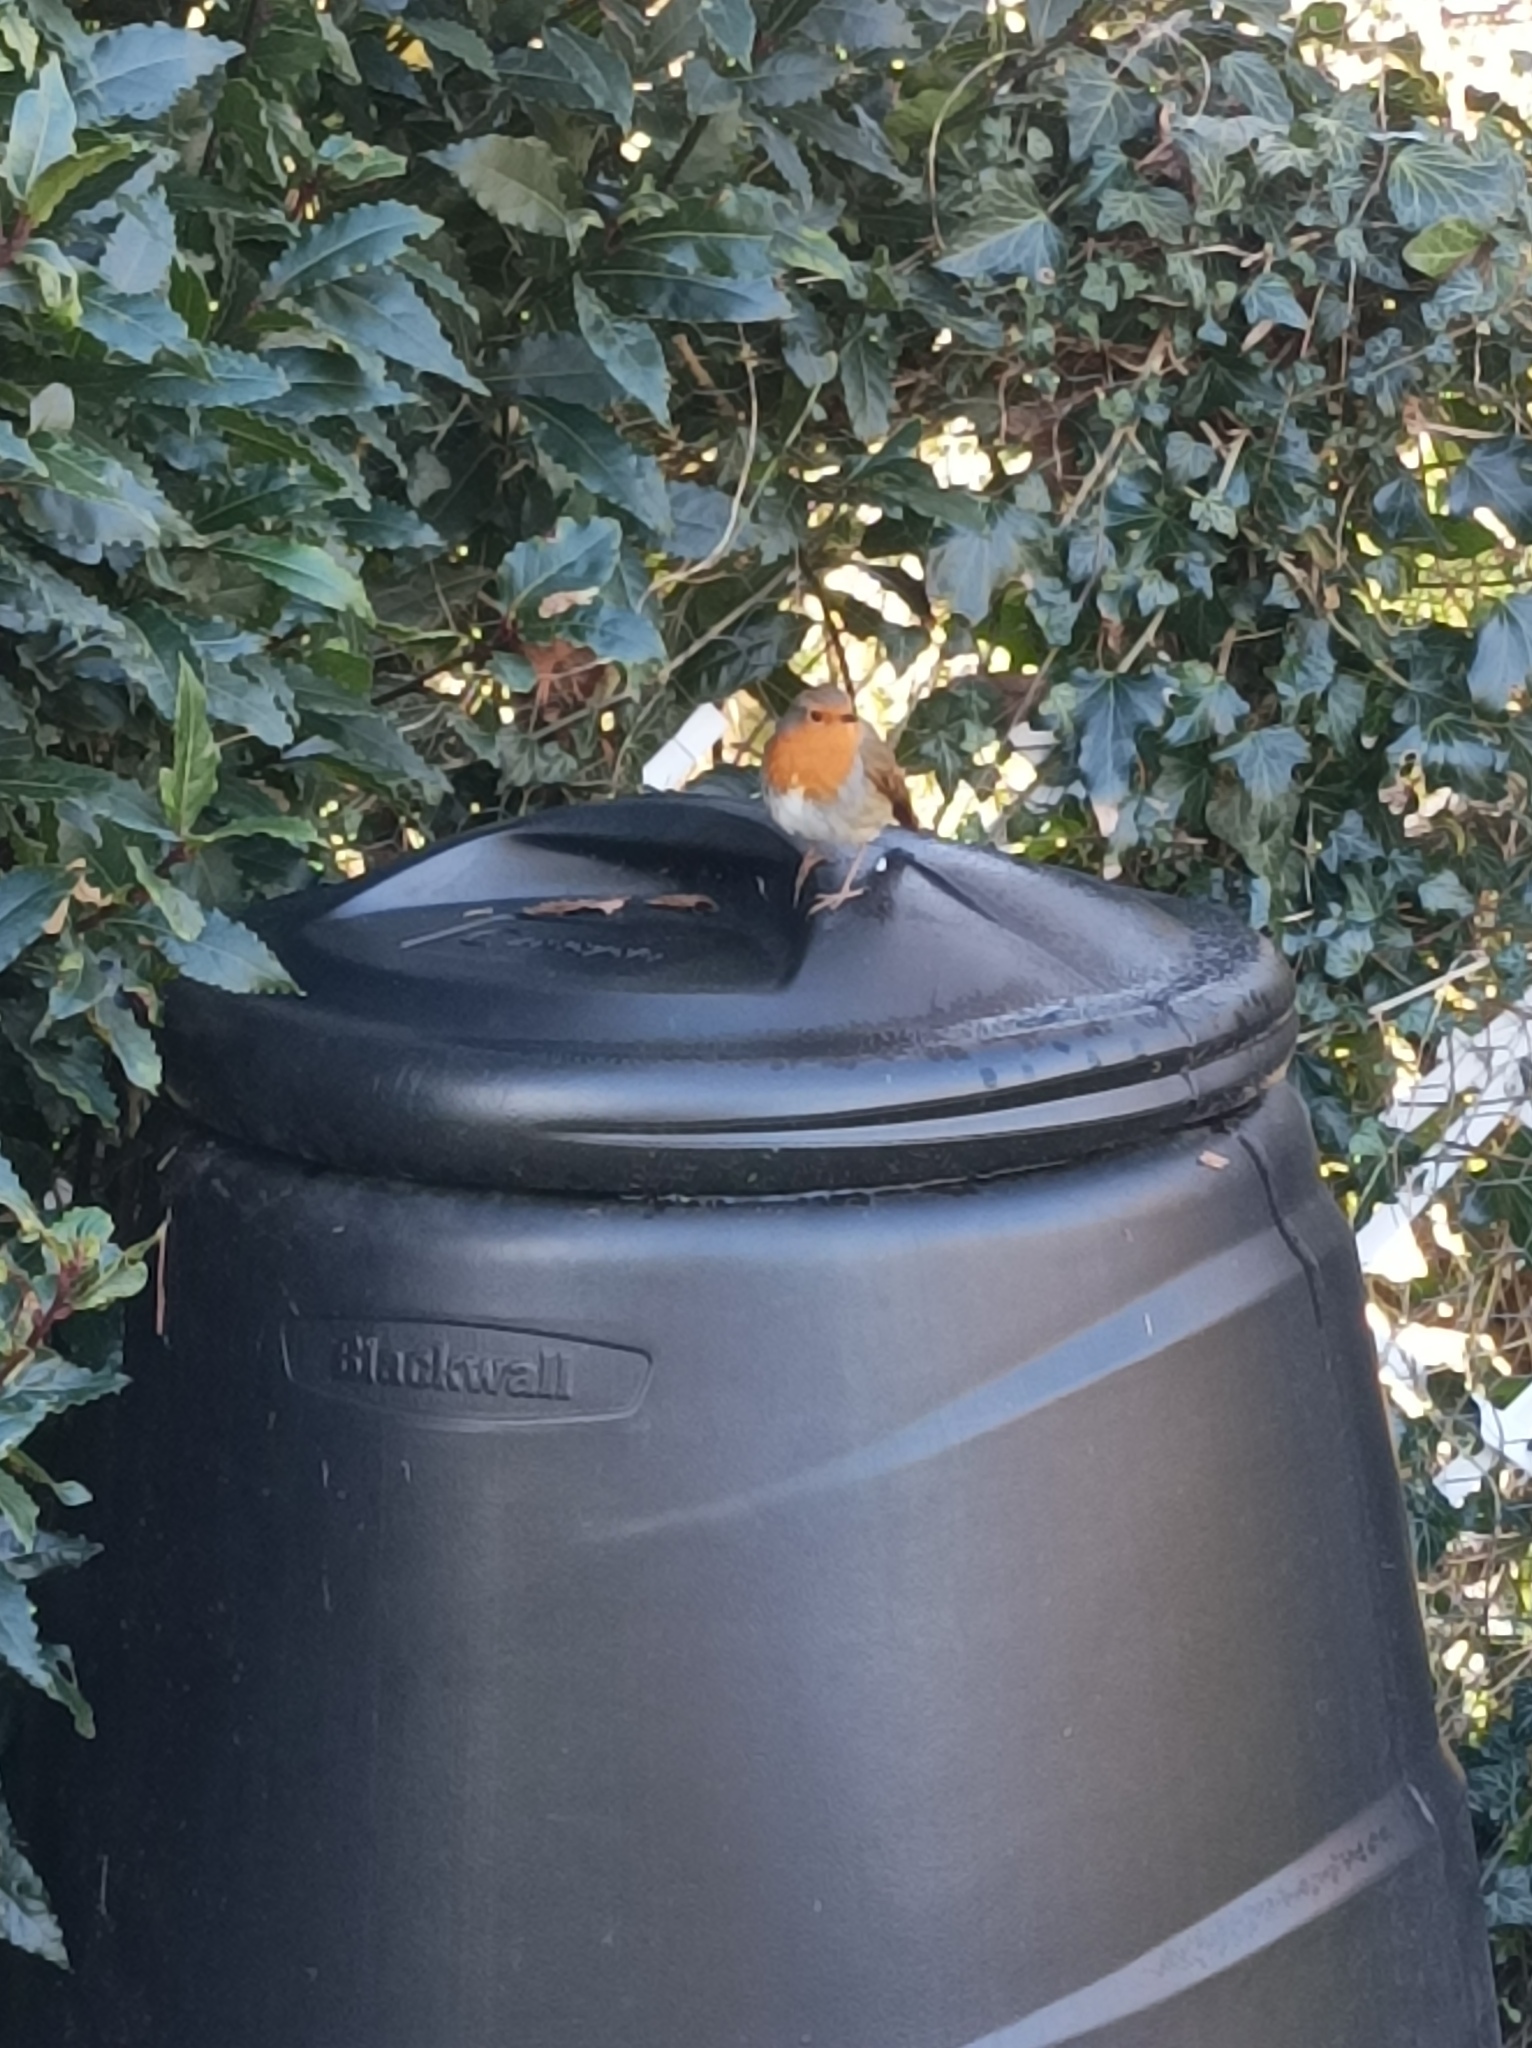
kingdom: Animalia
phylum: Chordata
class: Aves
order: Passeriformes
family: Muscicapidae
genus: Erithacus
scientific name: Erithacus rubecula
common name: European robin
